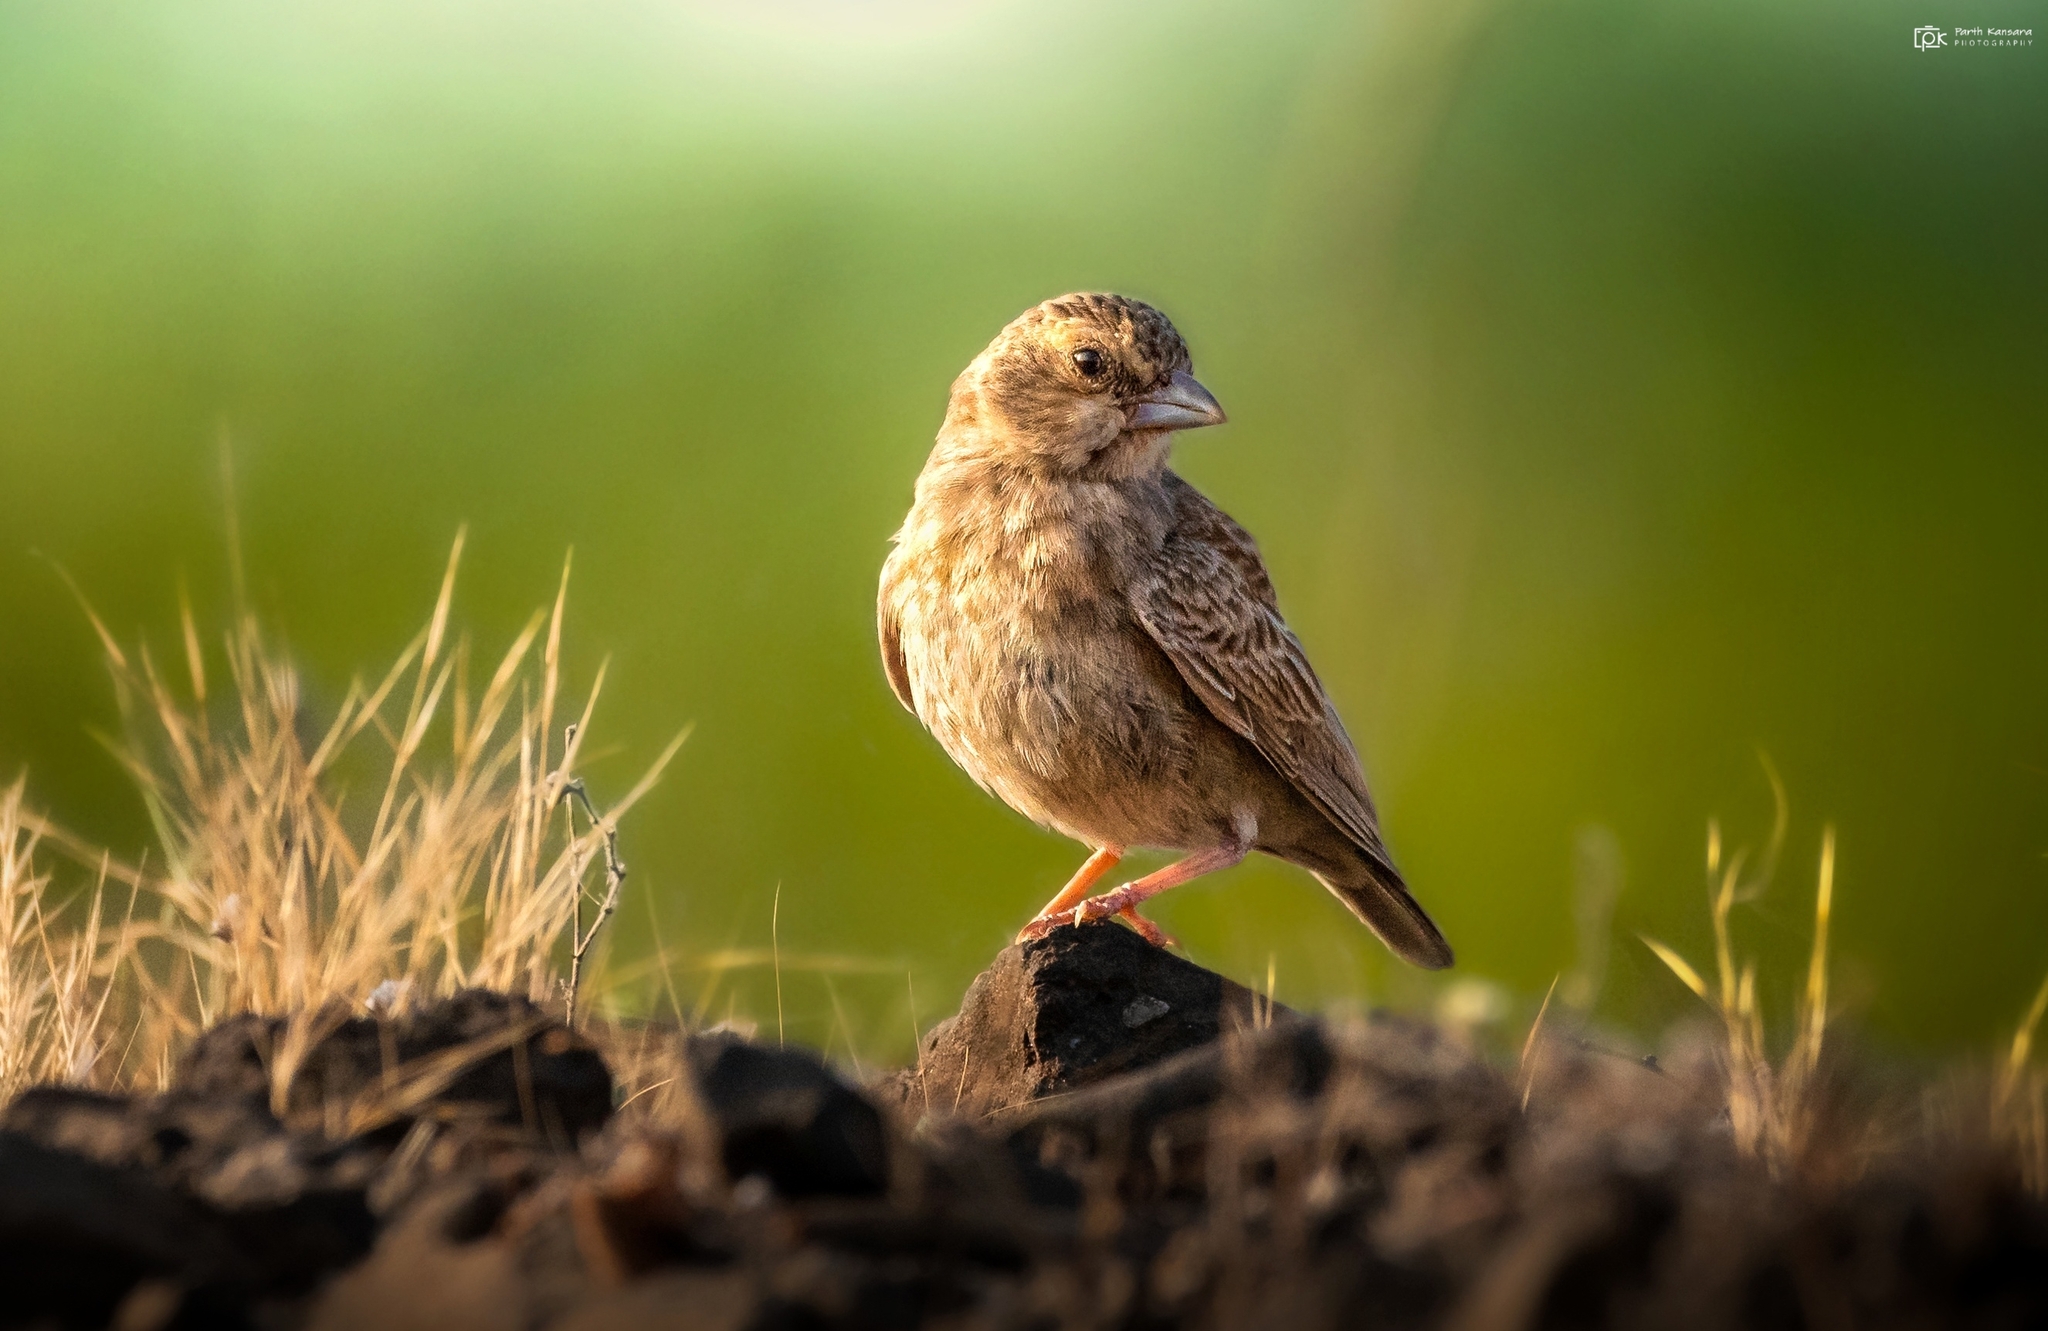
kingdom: Animalia
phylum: Chordata
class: Aves
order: Passeriformes
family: Alaudidae
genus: Eremopterix
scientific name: Eremopterix griseus
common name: Ashy-crowned sparrow-lark
